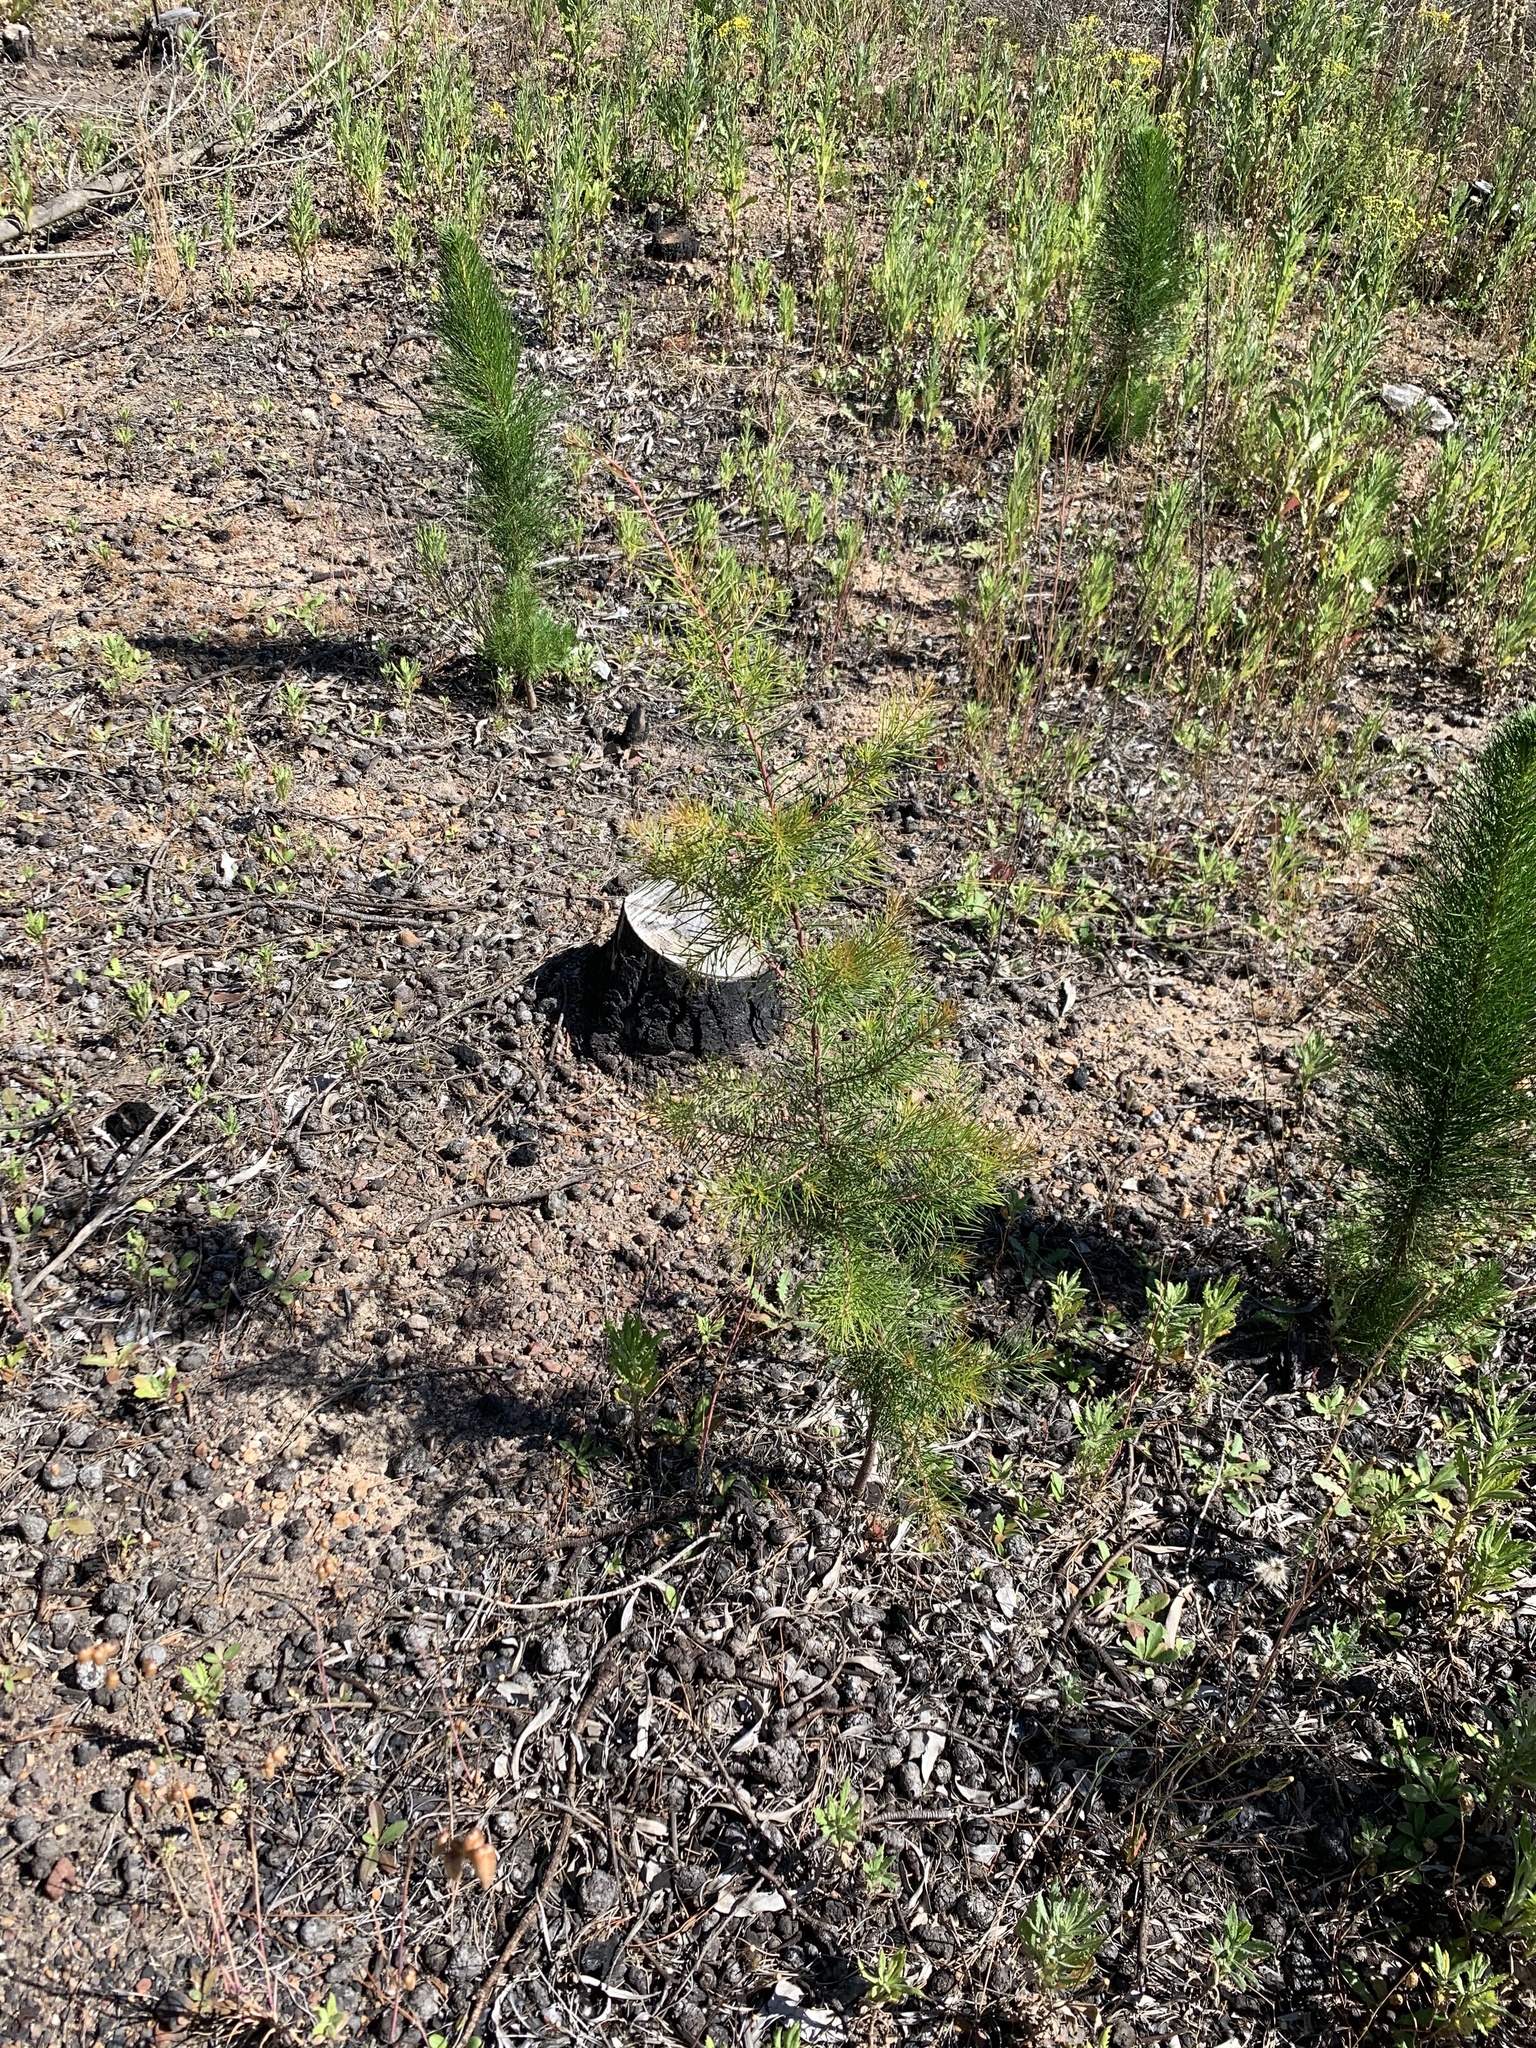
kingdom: Plantae
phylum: Tracheophyta
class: Magnoliopsida
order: Proteales
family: Proteaceae
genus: Hakea
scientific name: Hakea sericea
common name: Needle bush
